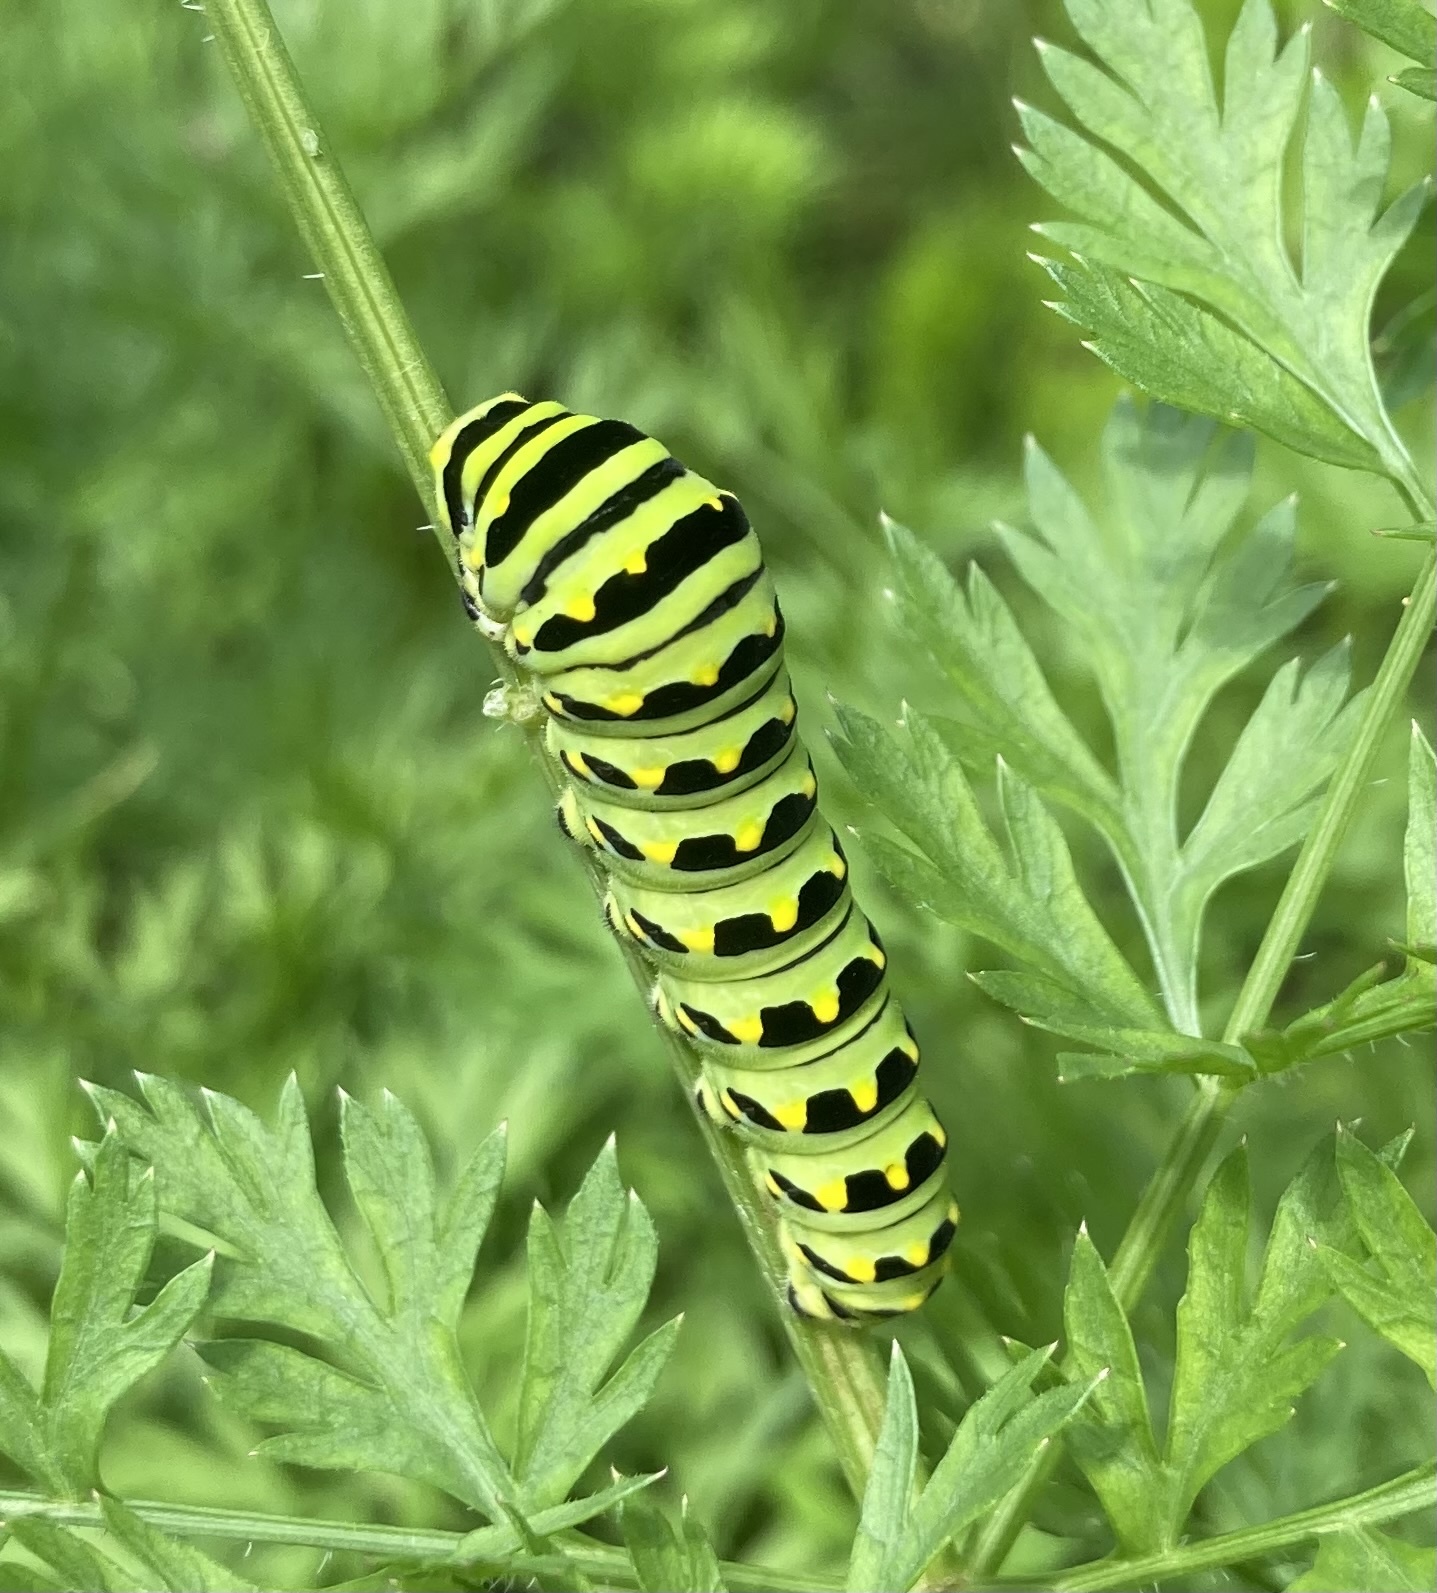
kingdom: Animalia
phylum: Arthropoda
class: Insecta
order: Lepidoptera
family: Papilionidae
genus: Papilio
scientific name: Papilio polyxenes
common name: Black swallowtail
